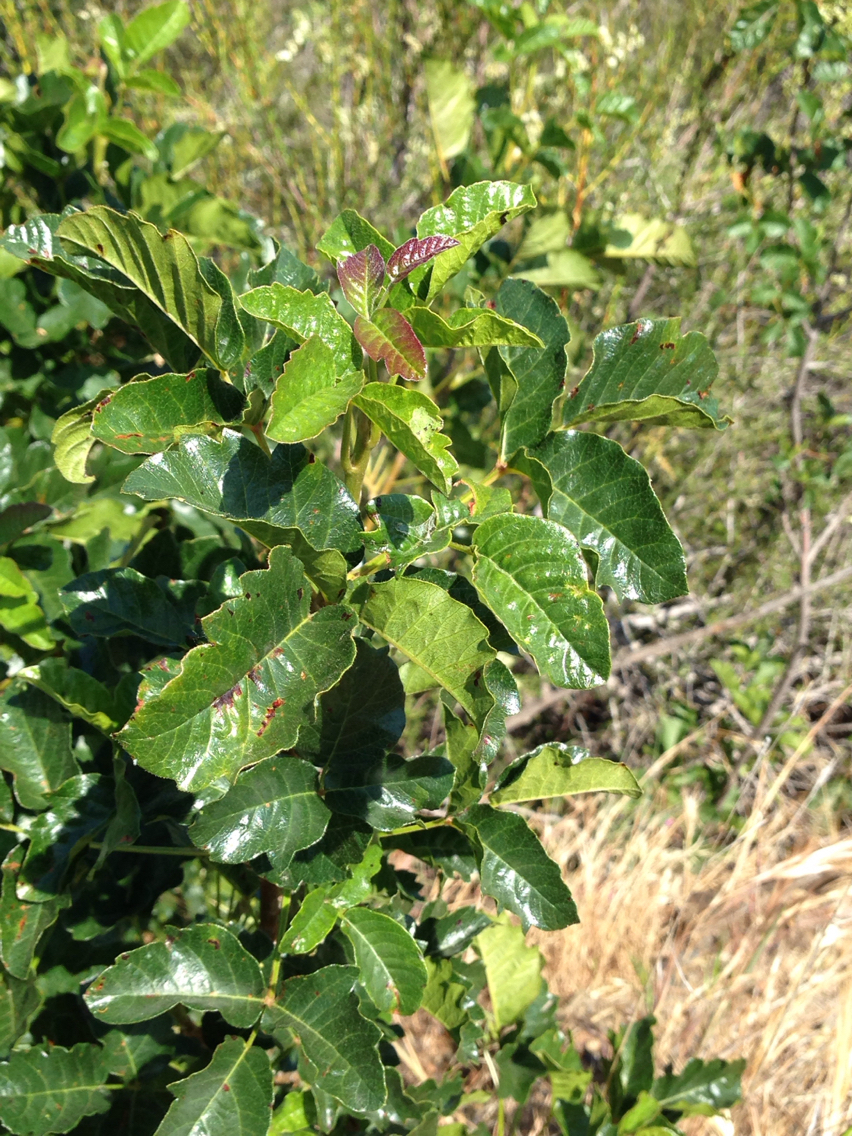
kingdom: Plantae
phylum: Tracheophyta
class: Magnoliopsida
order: Sapindales
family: Anacardiaceae
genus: Toxicodendron
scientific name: Toxicodendron diversilobum
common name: Pacific poison-oak
